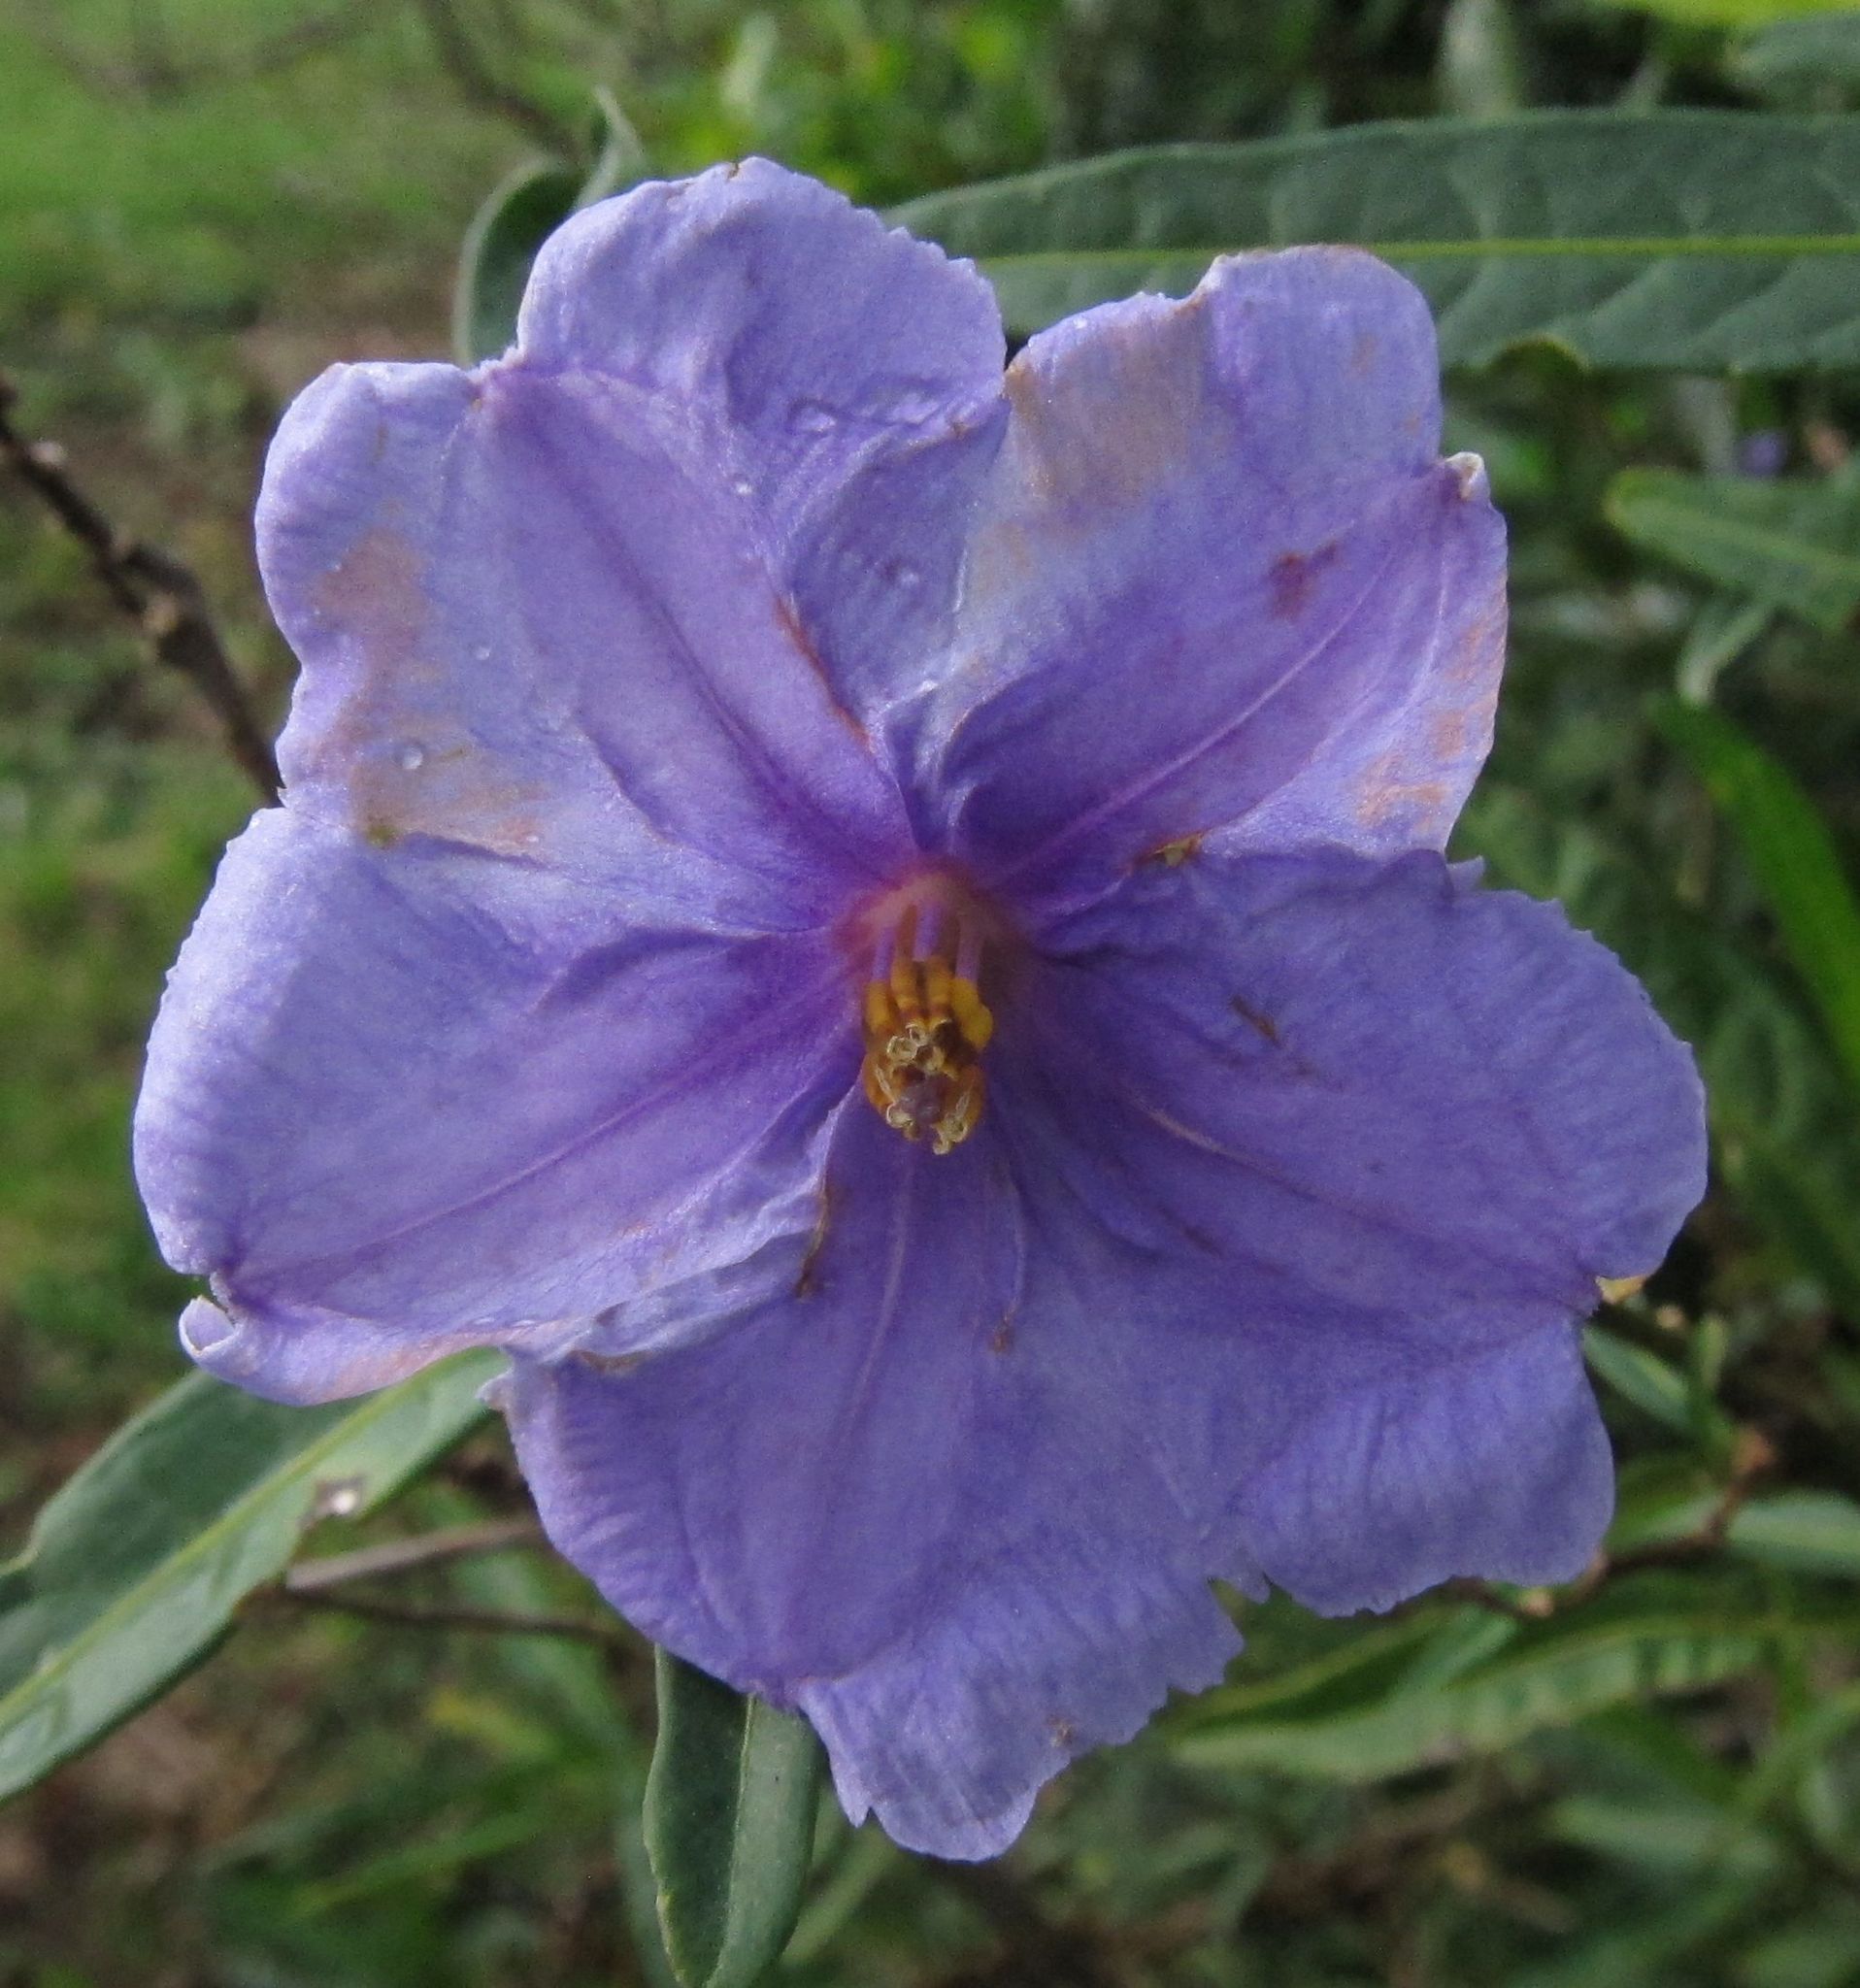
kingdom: Plantae
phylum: Tracheophyta
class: Magnoliopsida
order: Solanales
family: Solanaceae
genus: Solanum
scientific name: Solanum laciniatum
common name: Kangaroo-apple
